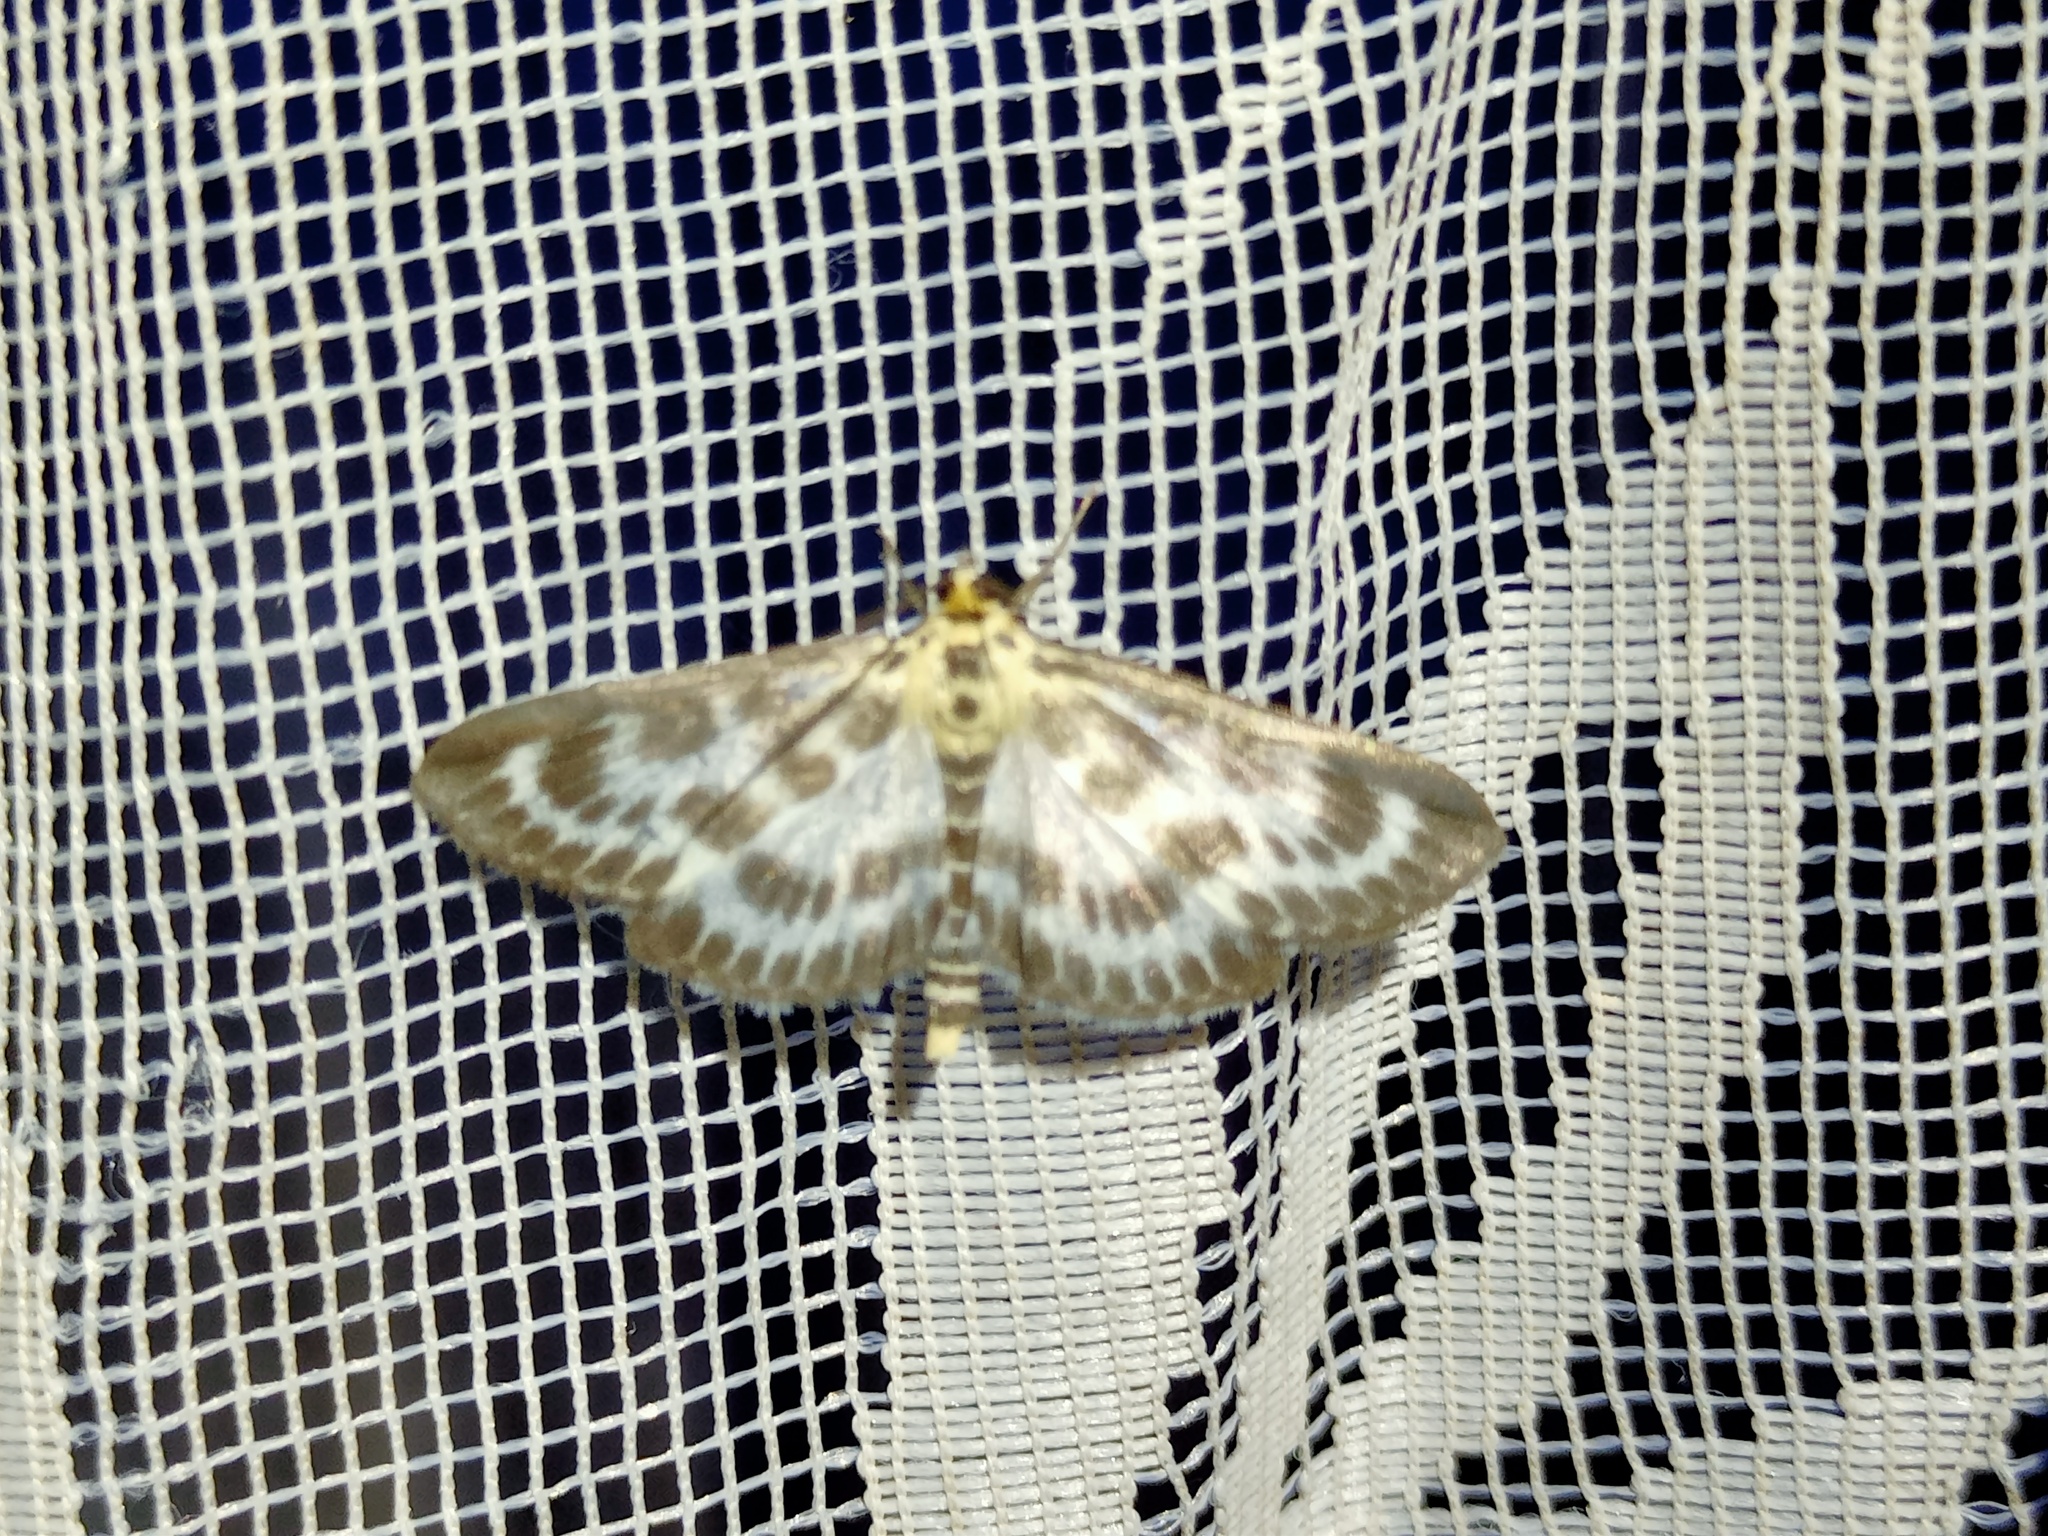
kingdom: Animalia
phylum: Arthropoda
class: Insecta
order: Lepidoptera
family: Crambidae
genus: Anania
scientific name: Anania hortulata
